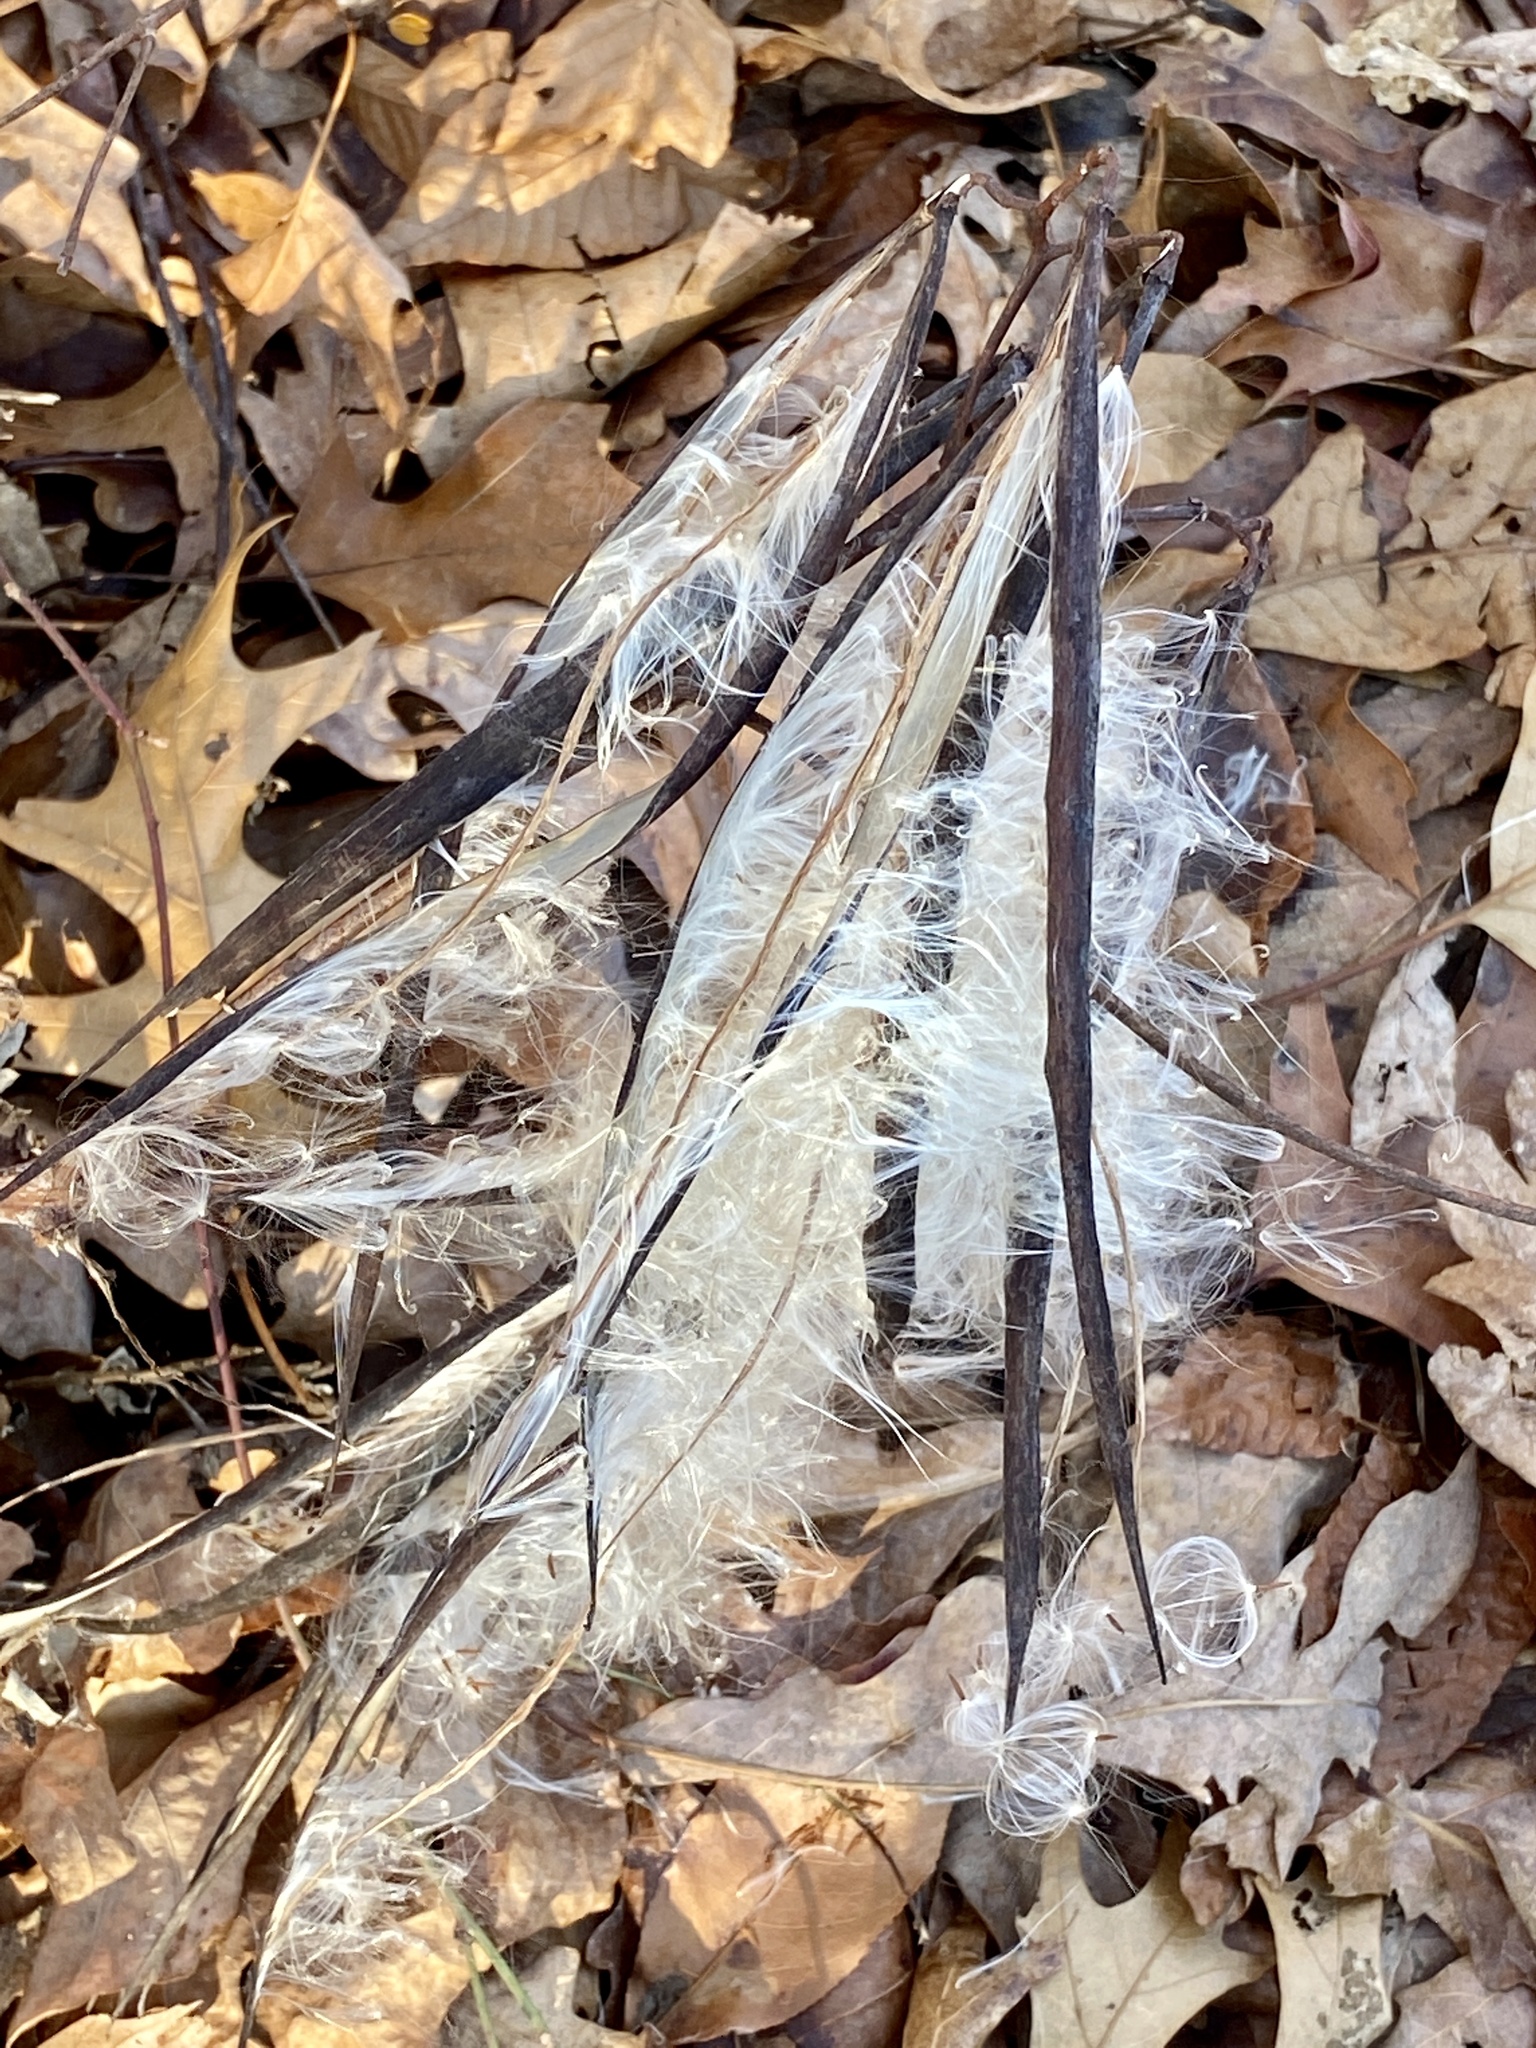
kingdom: Plantae
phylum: Tracheophyta
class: Magnoliopsida
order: Gentianales
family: Apocynaceae
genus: Apocynum
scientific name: Apocynum cannabinum
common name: Hemp dogbane
